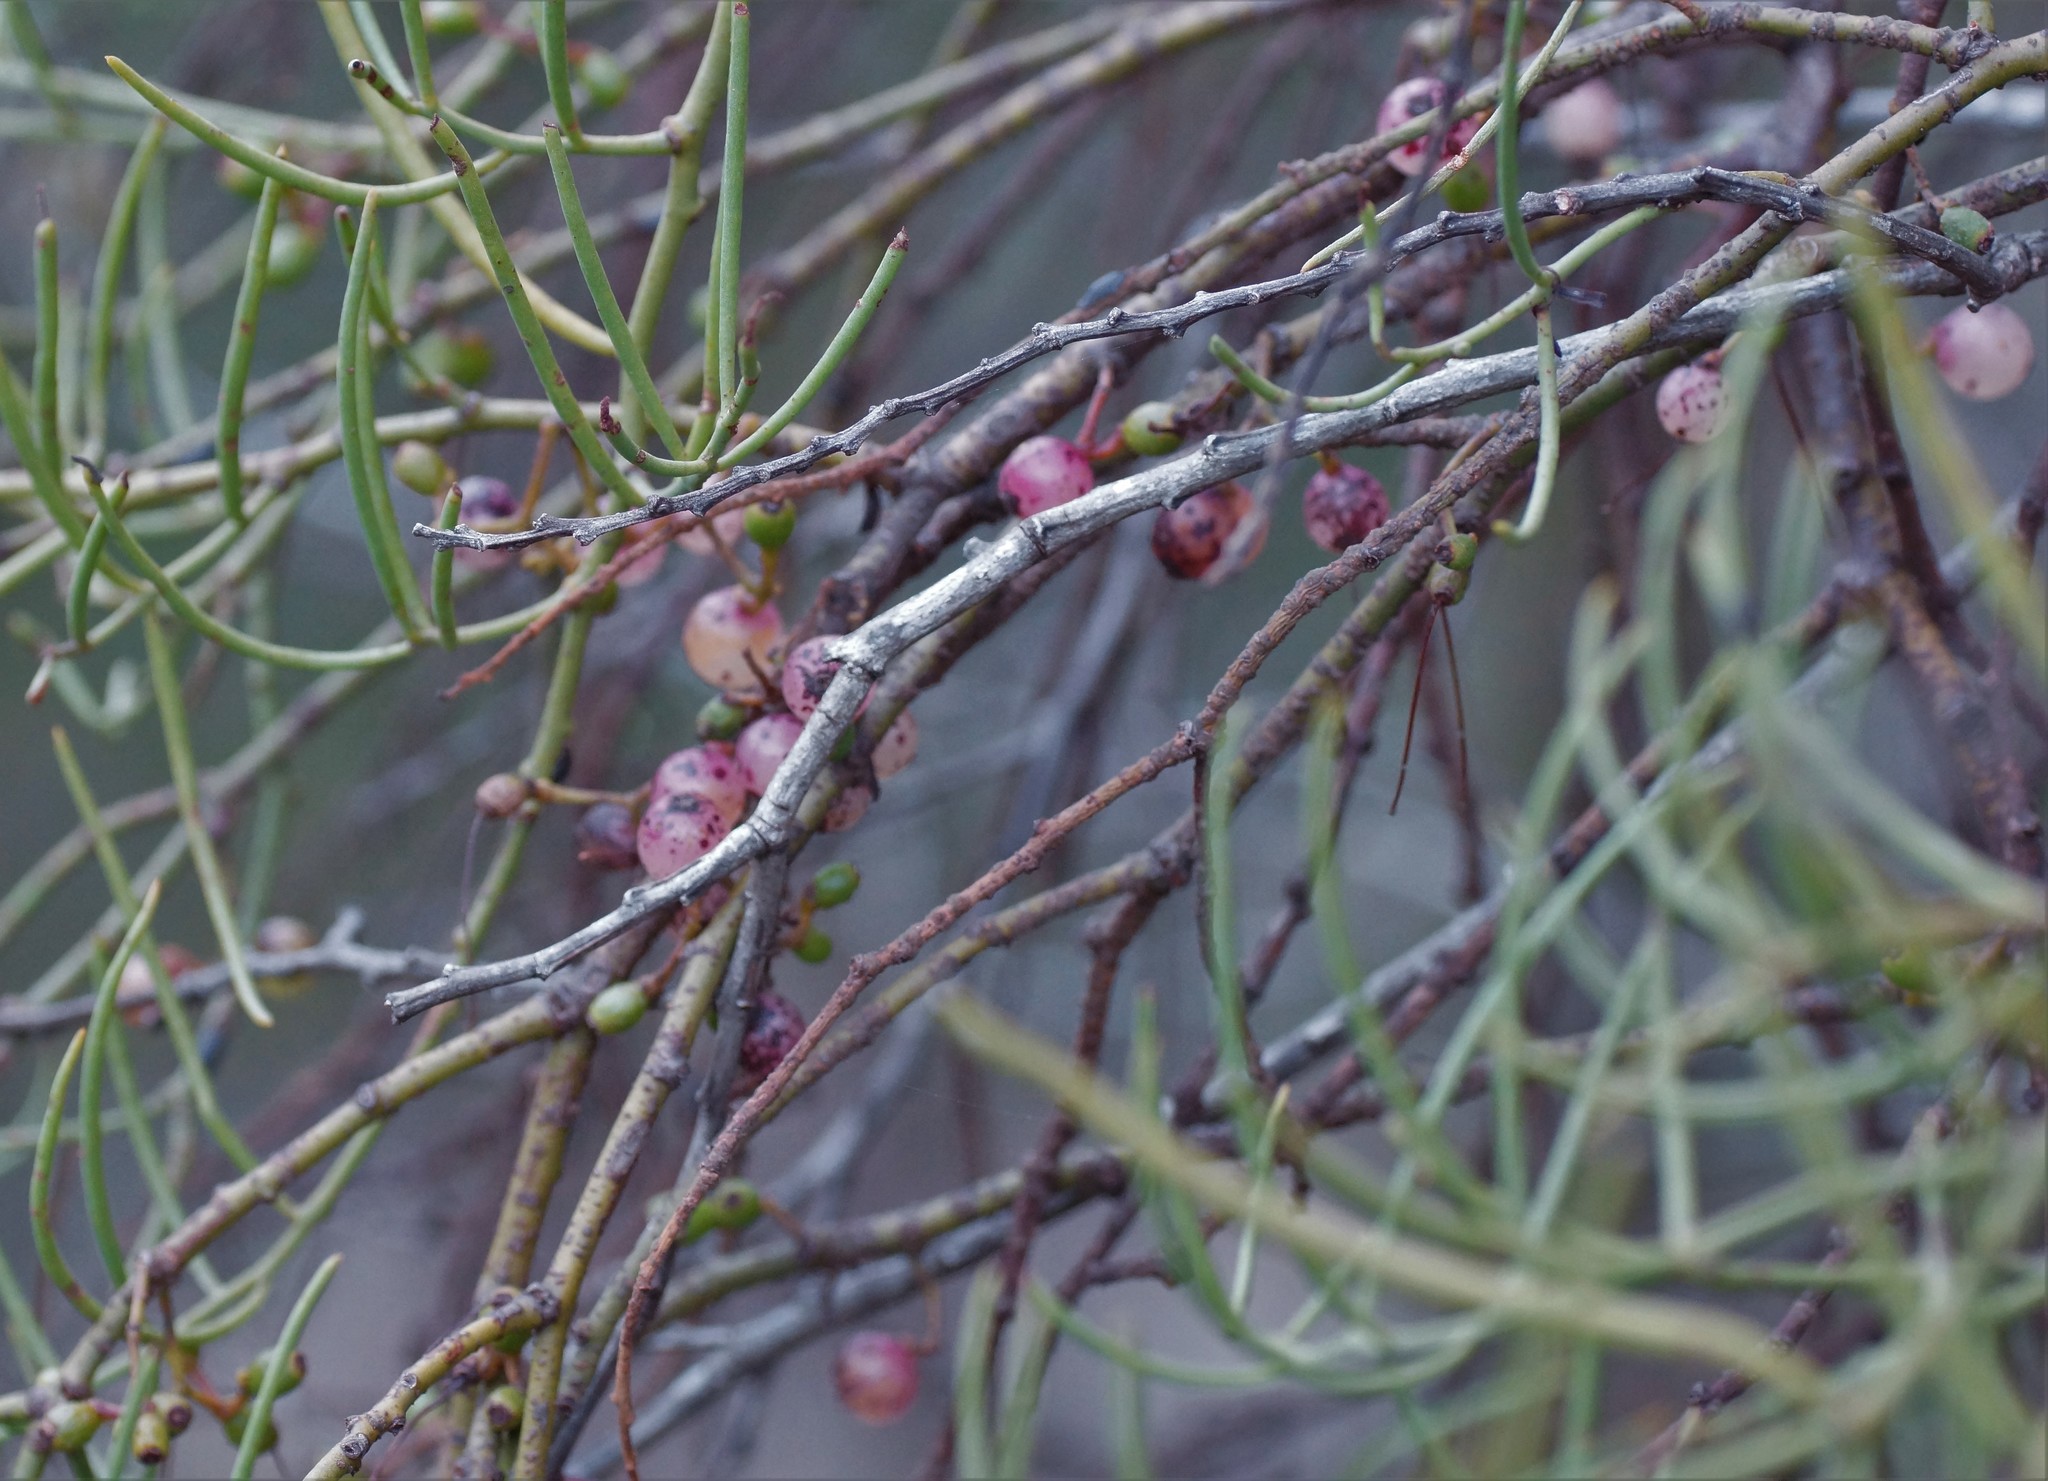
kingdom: Plantae
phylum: Tracheophyta
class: Magnoliopsida
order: Santalales
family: Loranthaceae
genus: Amyema
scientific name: Amyema preissii
